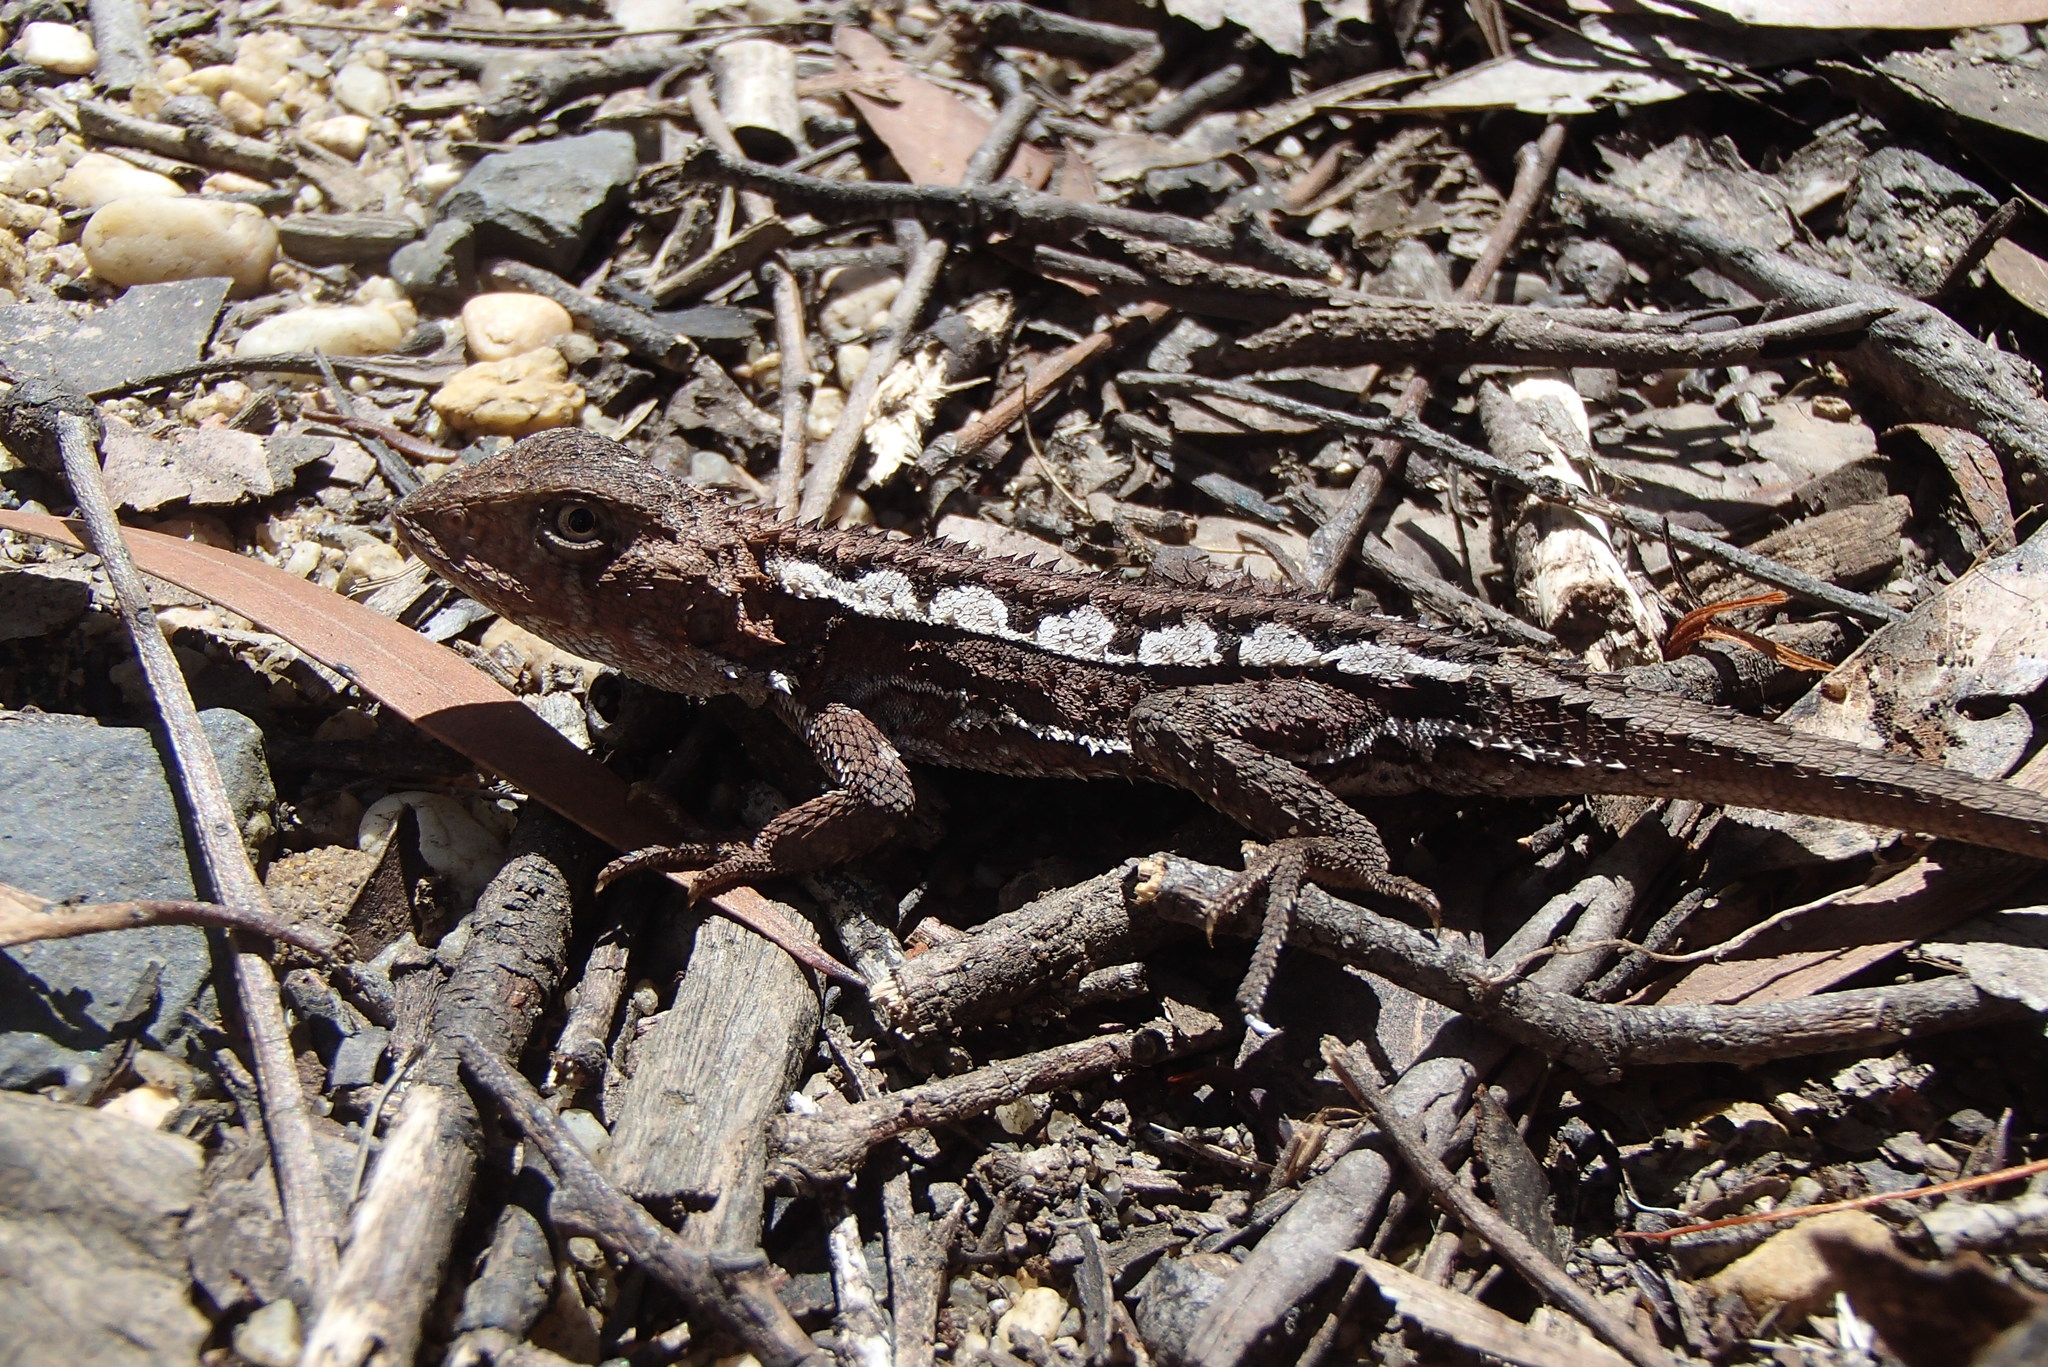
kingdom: Animalia
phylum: Chordata
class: Squamata
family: Agamidae
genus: Rankinia
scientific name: Rankinia diemensis
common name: Mountain dragon
